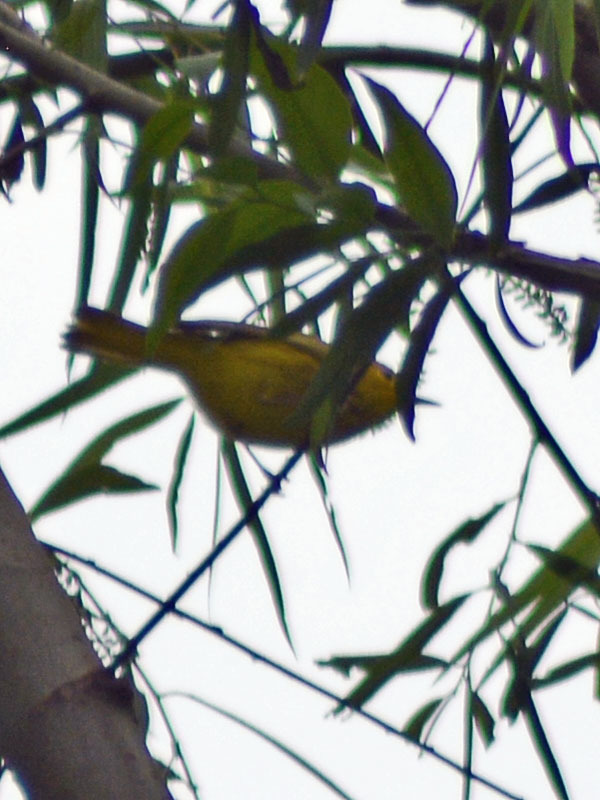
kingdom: Animalia
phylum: Chordata
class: Aves
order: Passeriformes
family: Parulidae
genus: Setophaga
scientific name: Setophaga petechia
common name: Yellow warbler
